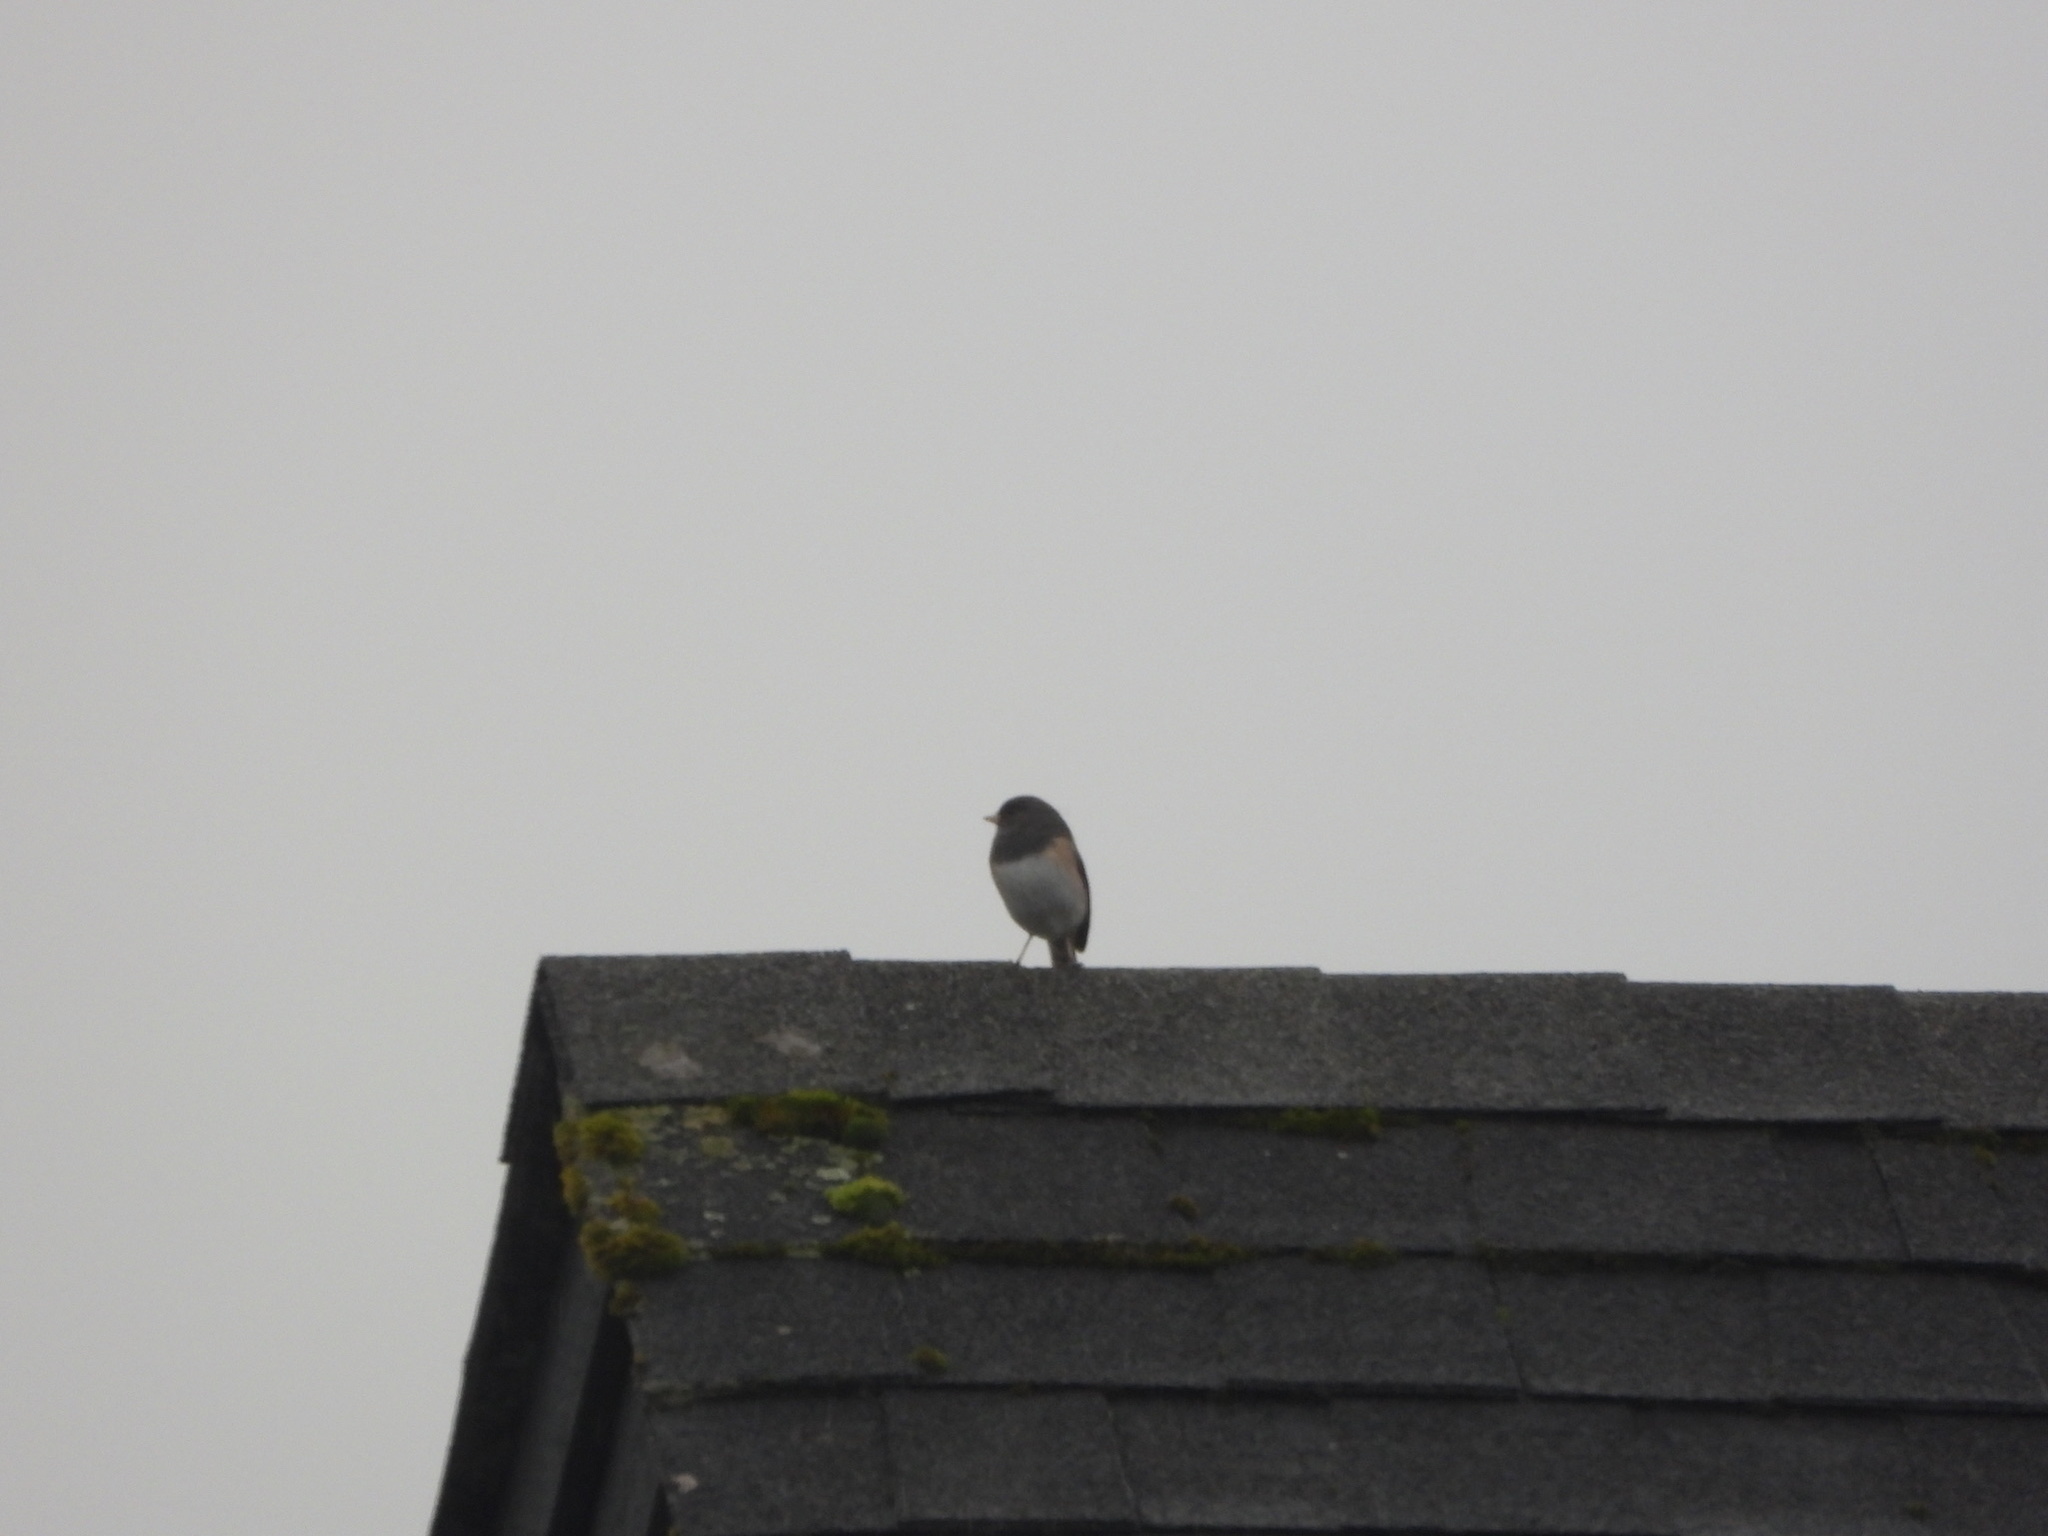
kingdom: Animalia
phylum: Chordata
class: Aves
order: Passeriformes
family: Passerellidae
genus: Junco
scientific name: Junco hyemalis
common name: Dark-eyed junco
